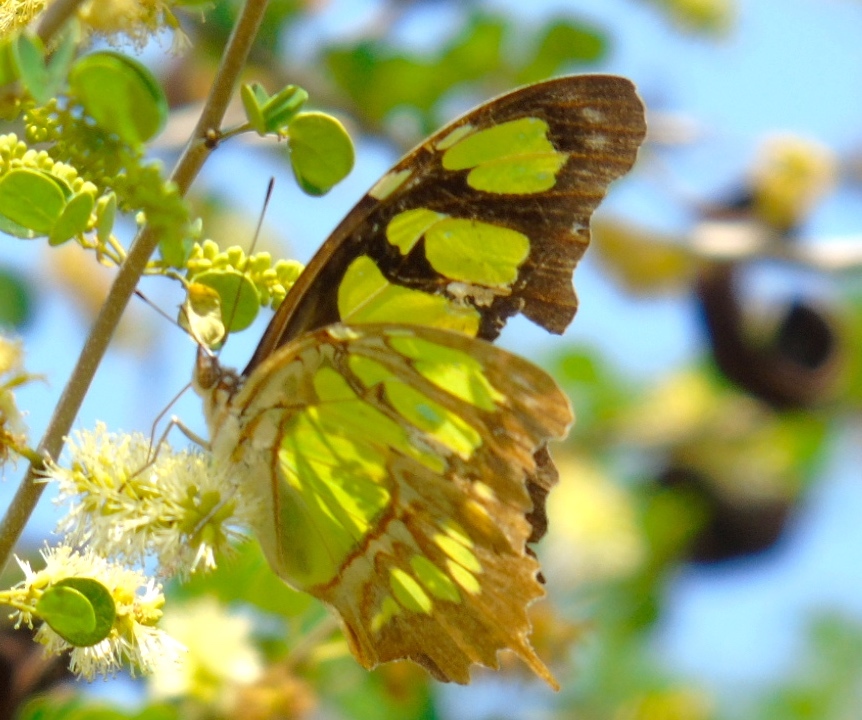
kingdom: Animalia
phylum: Arthropoda
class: Insecta
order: Lepidoptera
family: Nymphalidae
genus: Siproeta
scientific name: Siproeta stelenes
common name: Malachite
